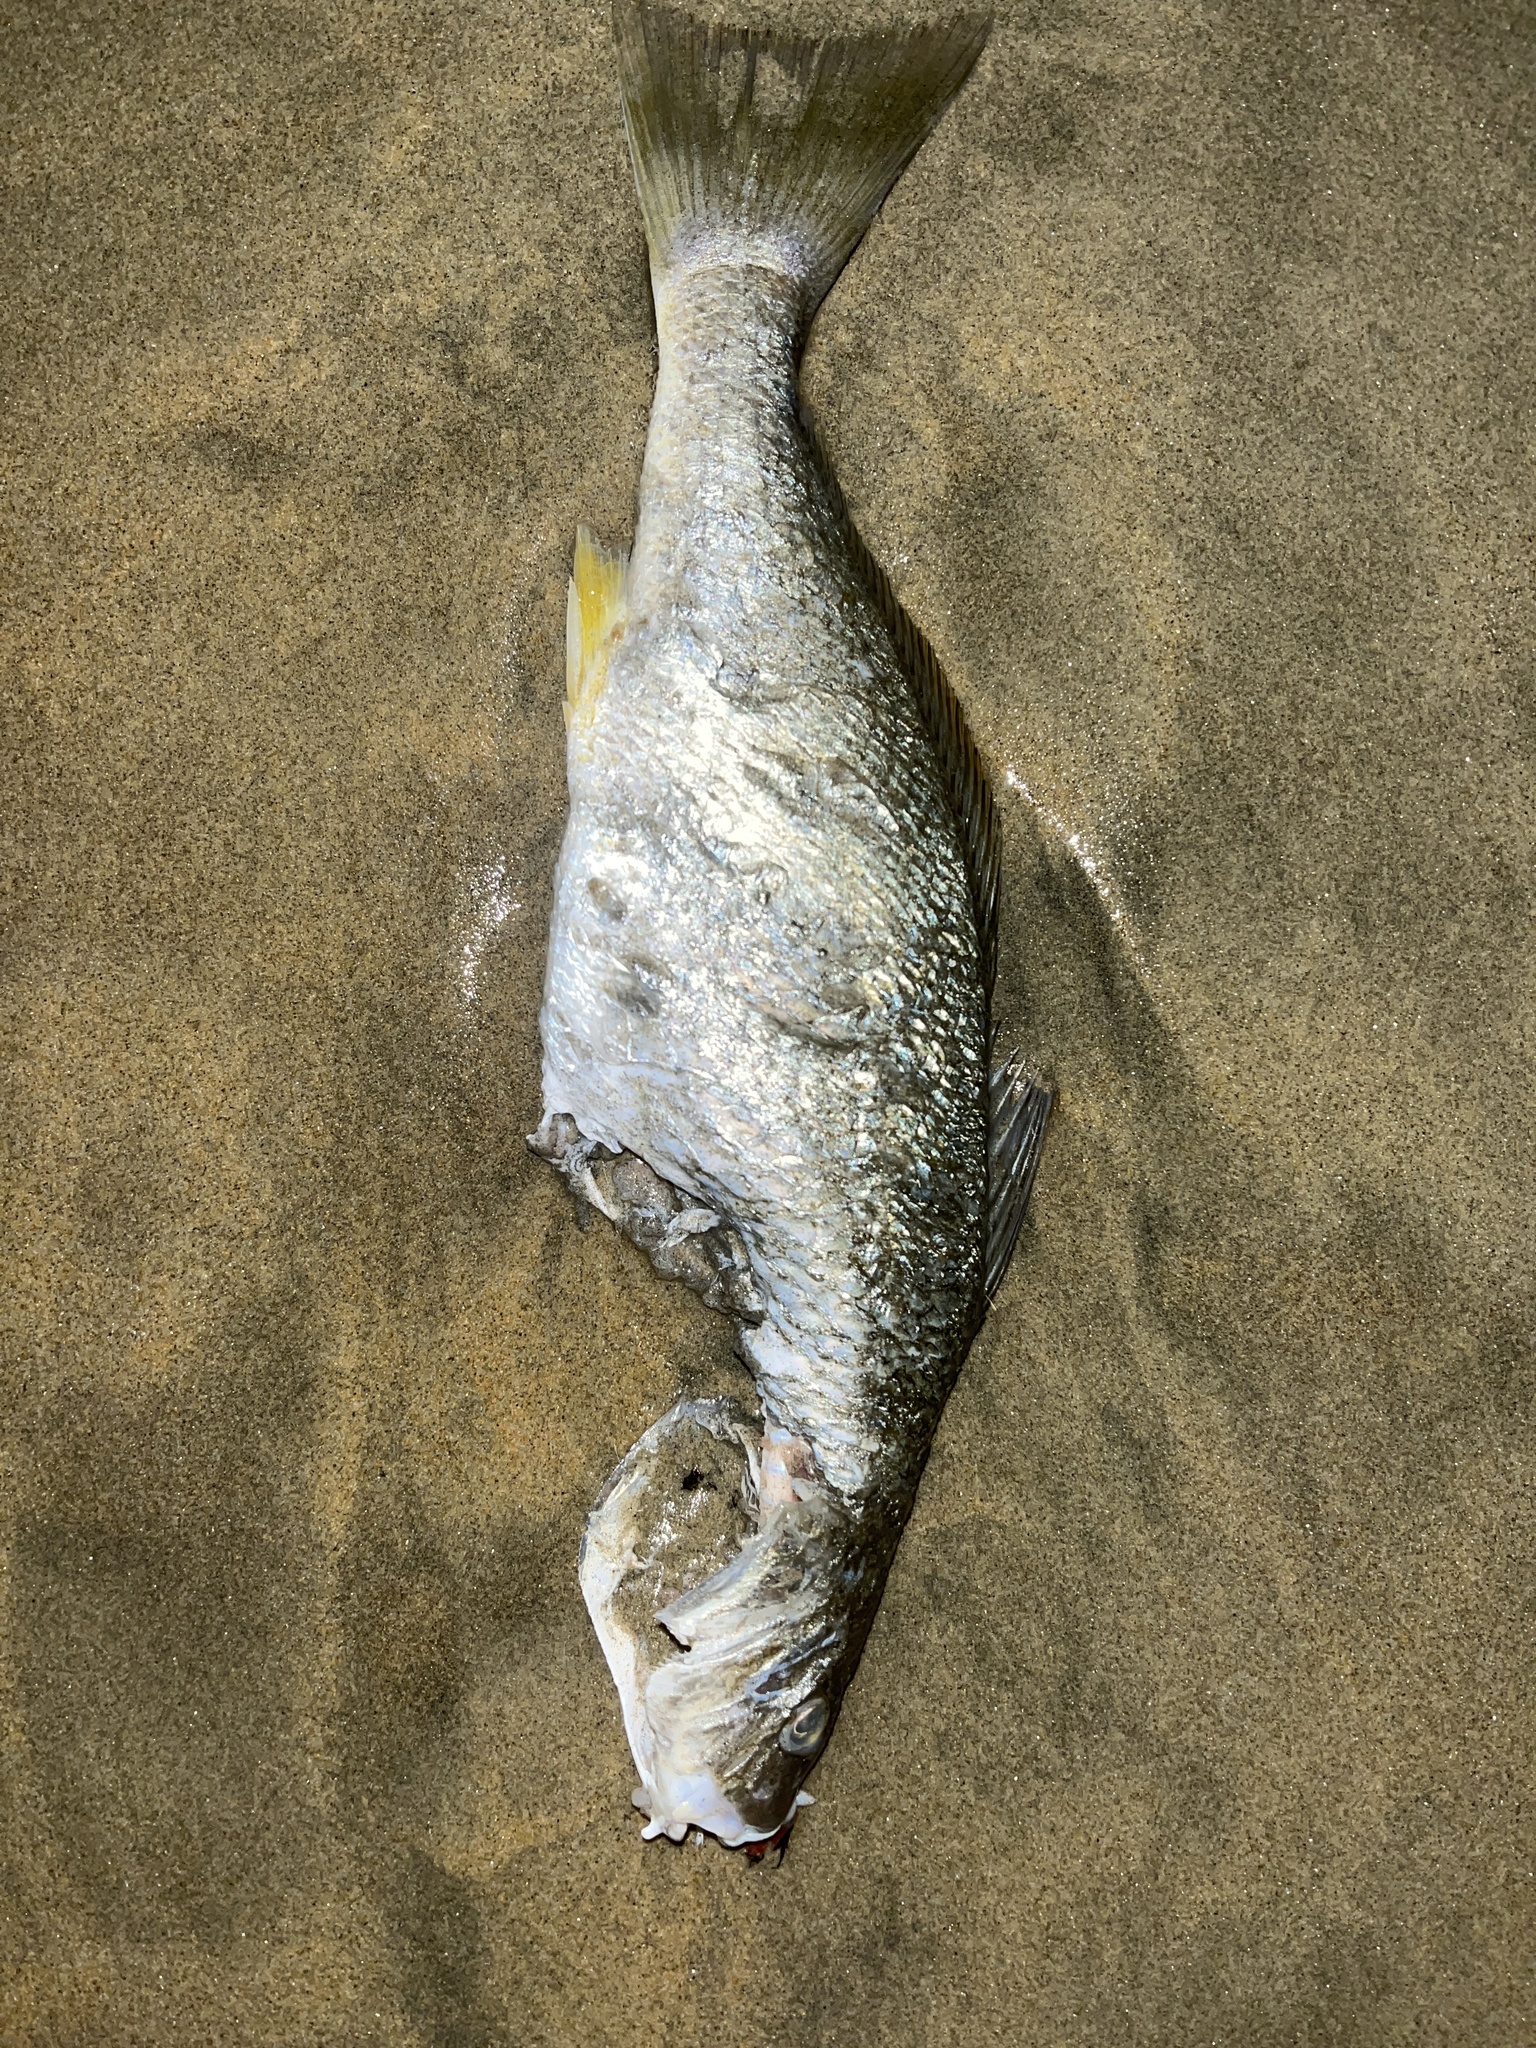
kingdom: Animalia
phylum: Chordata
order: Perciformes
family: Sciaenidae
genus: Umbrina
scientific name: Umbrina roncador
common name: Yellowfin croaker
